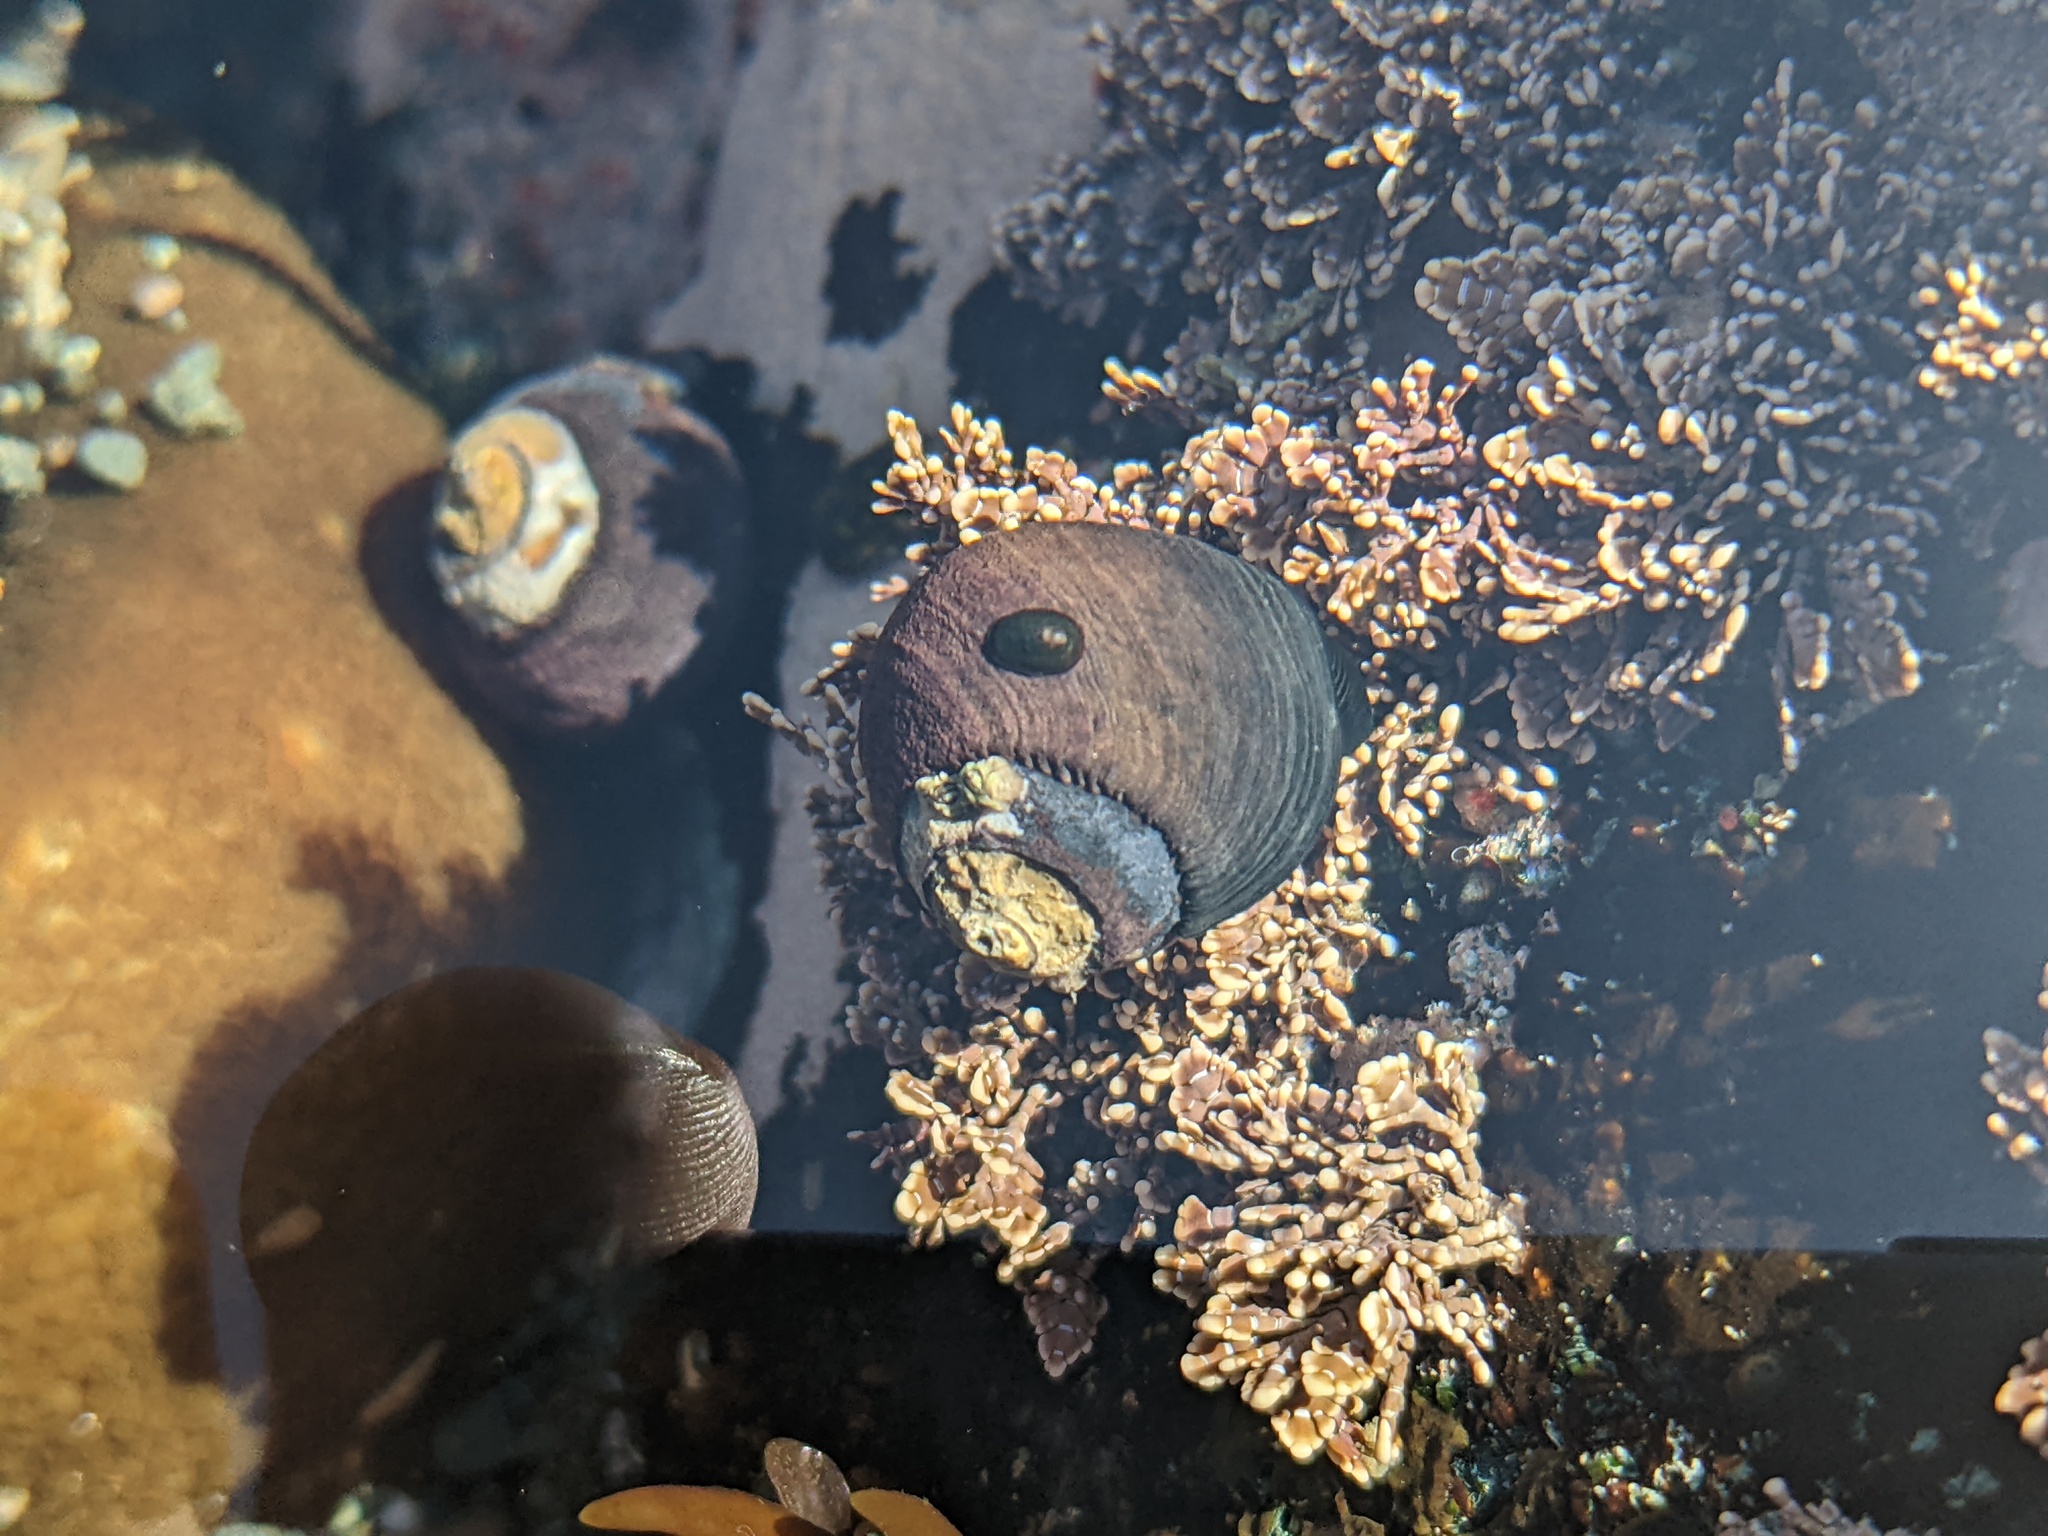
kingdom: Animalia
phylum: Mollusca
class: Gastropoda
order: Trochida
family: Tegulidae
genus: Tegula
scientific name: Tegula funebralis
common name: Black tegula
